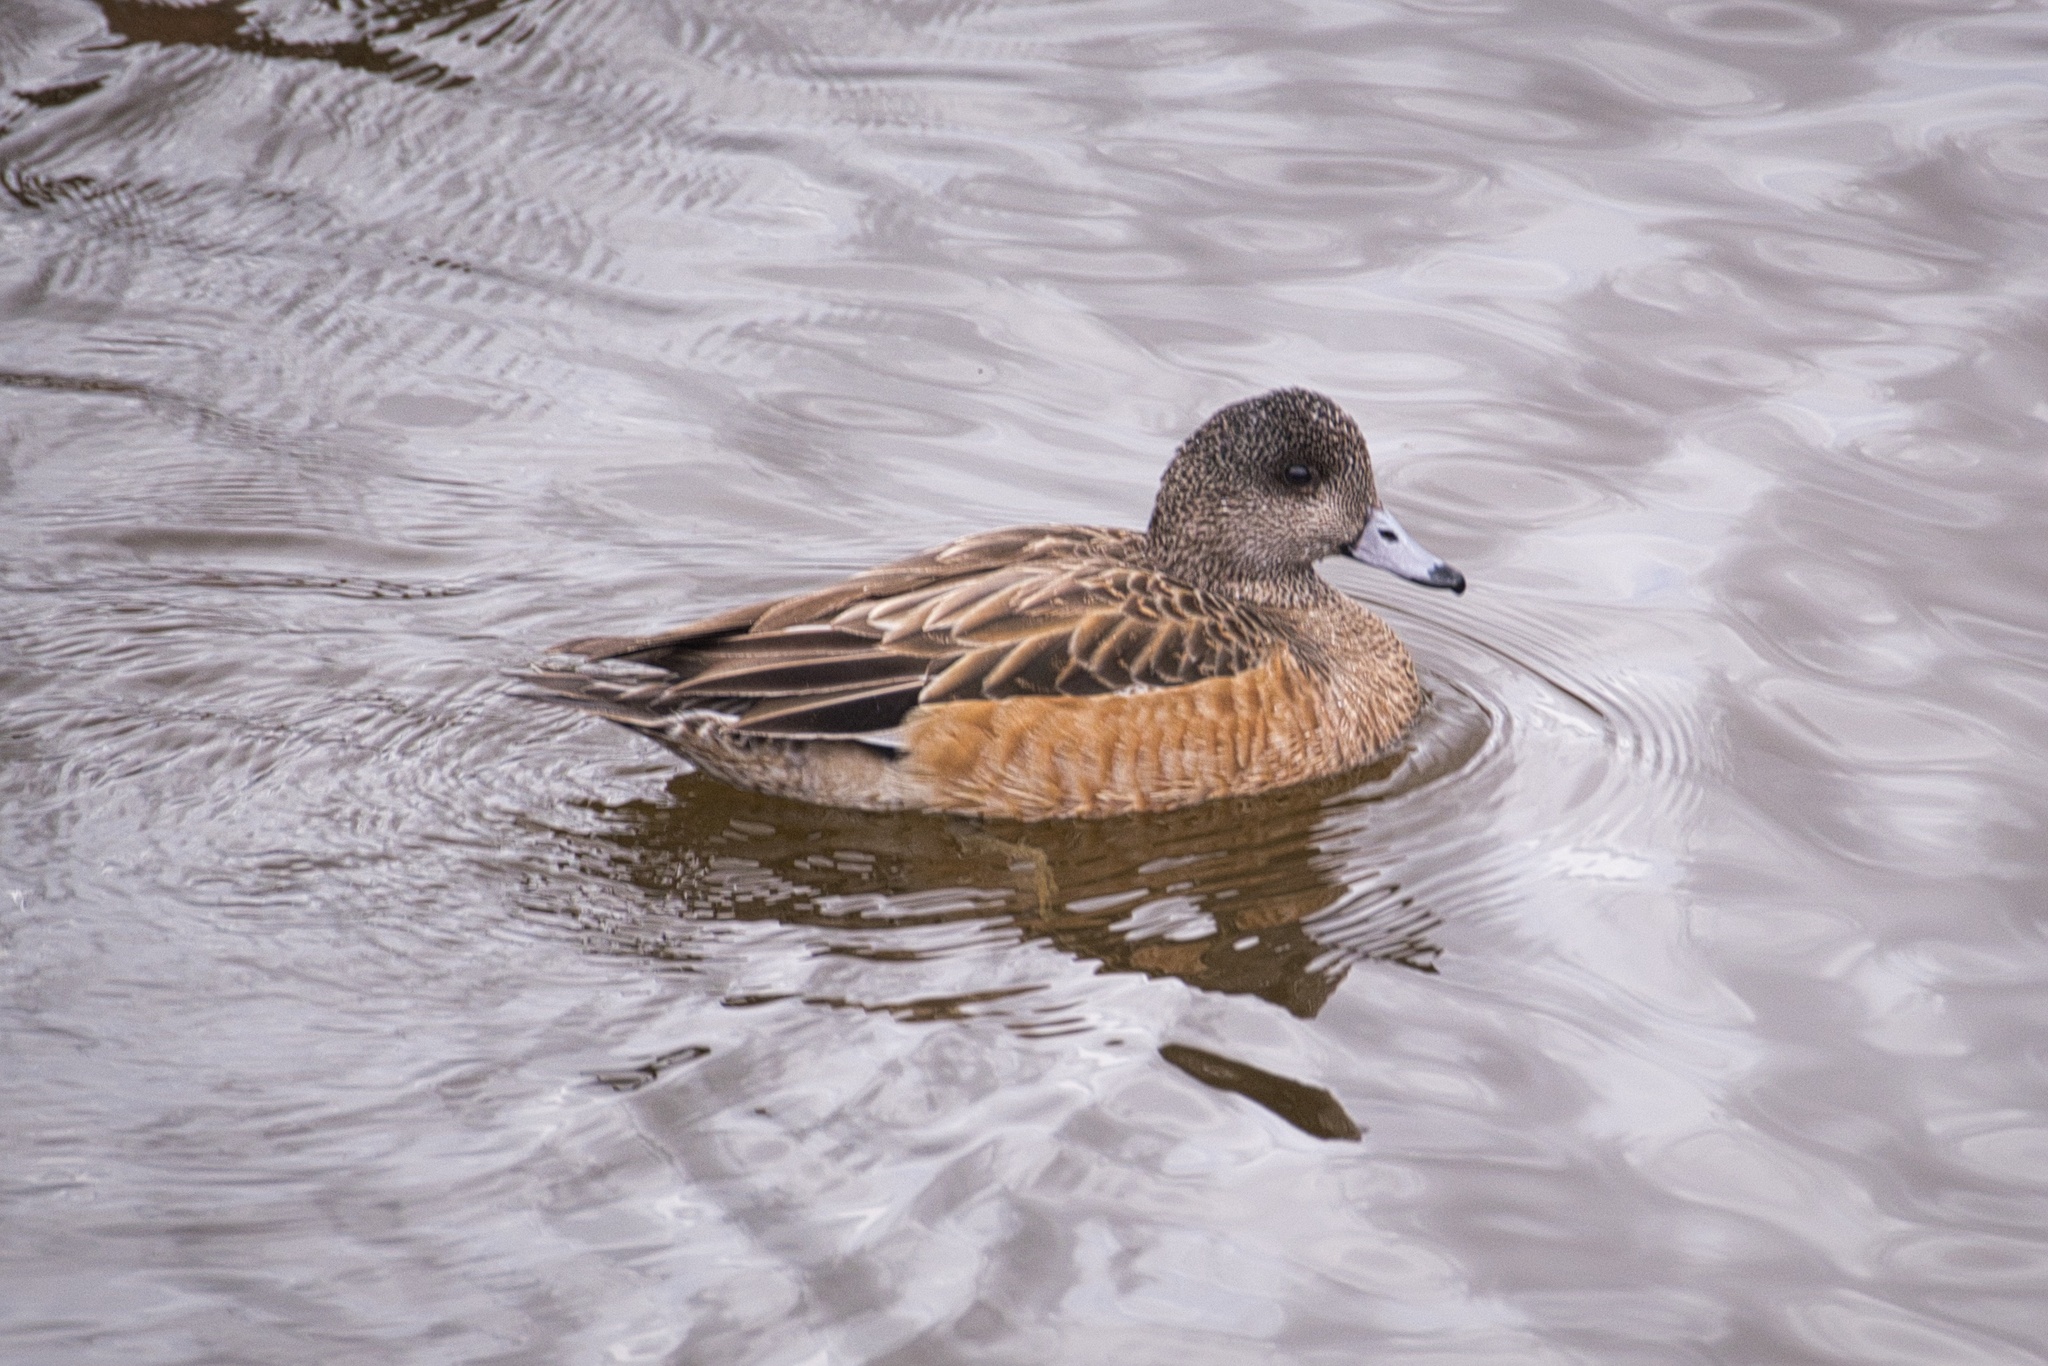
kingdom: Animalia
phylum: Chordata
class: Aves
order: Anseriformes
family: Anatidae
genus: Mareca
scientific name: Mareca americana
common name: American wigeon
